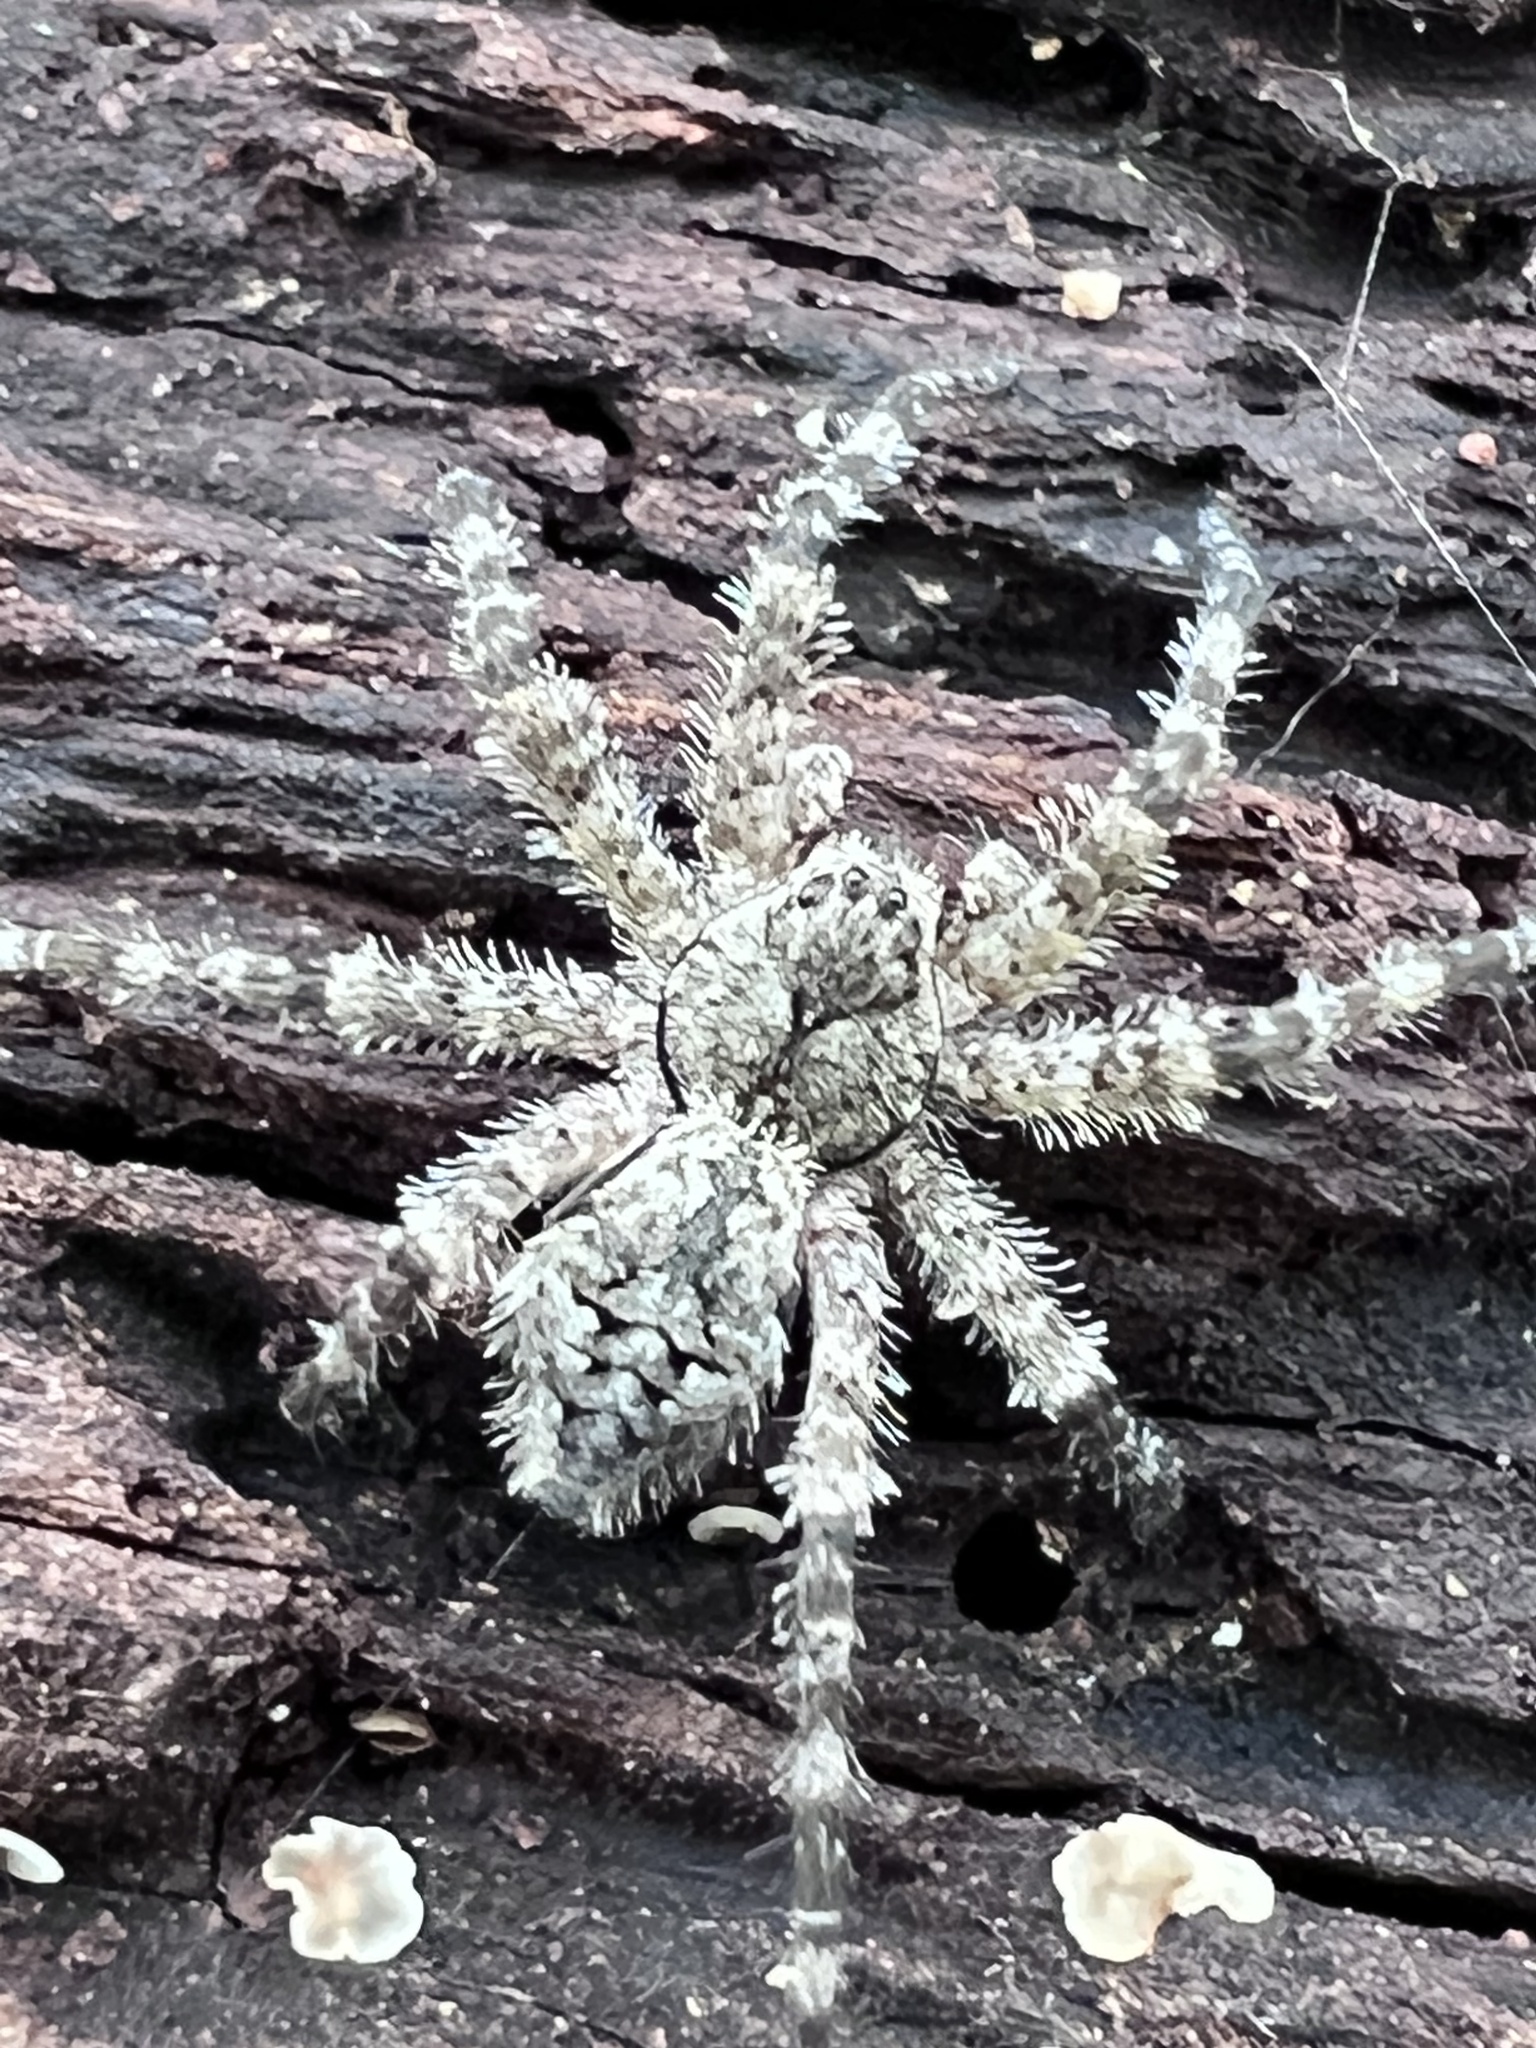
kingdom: Animalia
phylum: Arthropoda
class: Arachnida
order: Araneae
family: Pisauridae
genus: Dolomedes
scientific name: Dolomedes albineus
